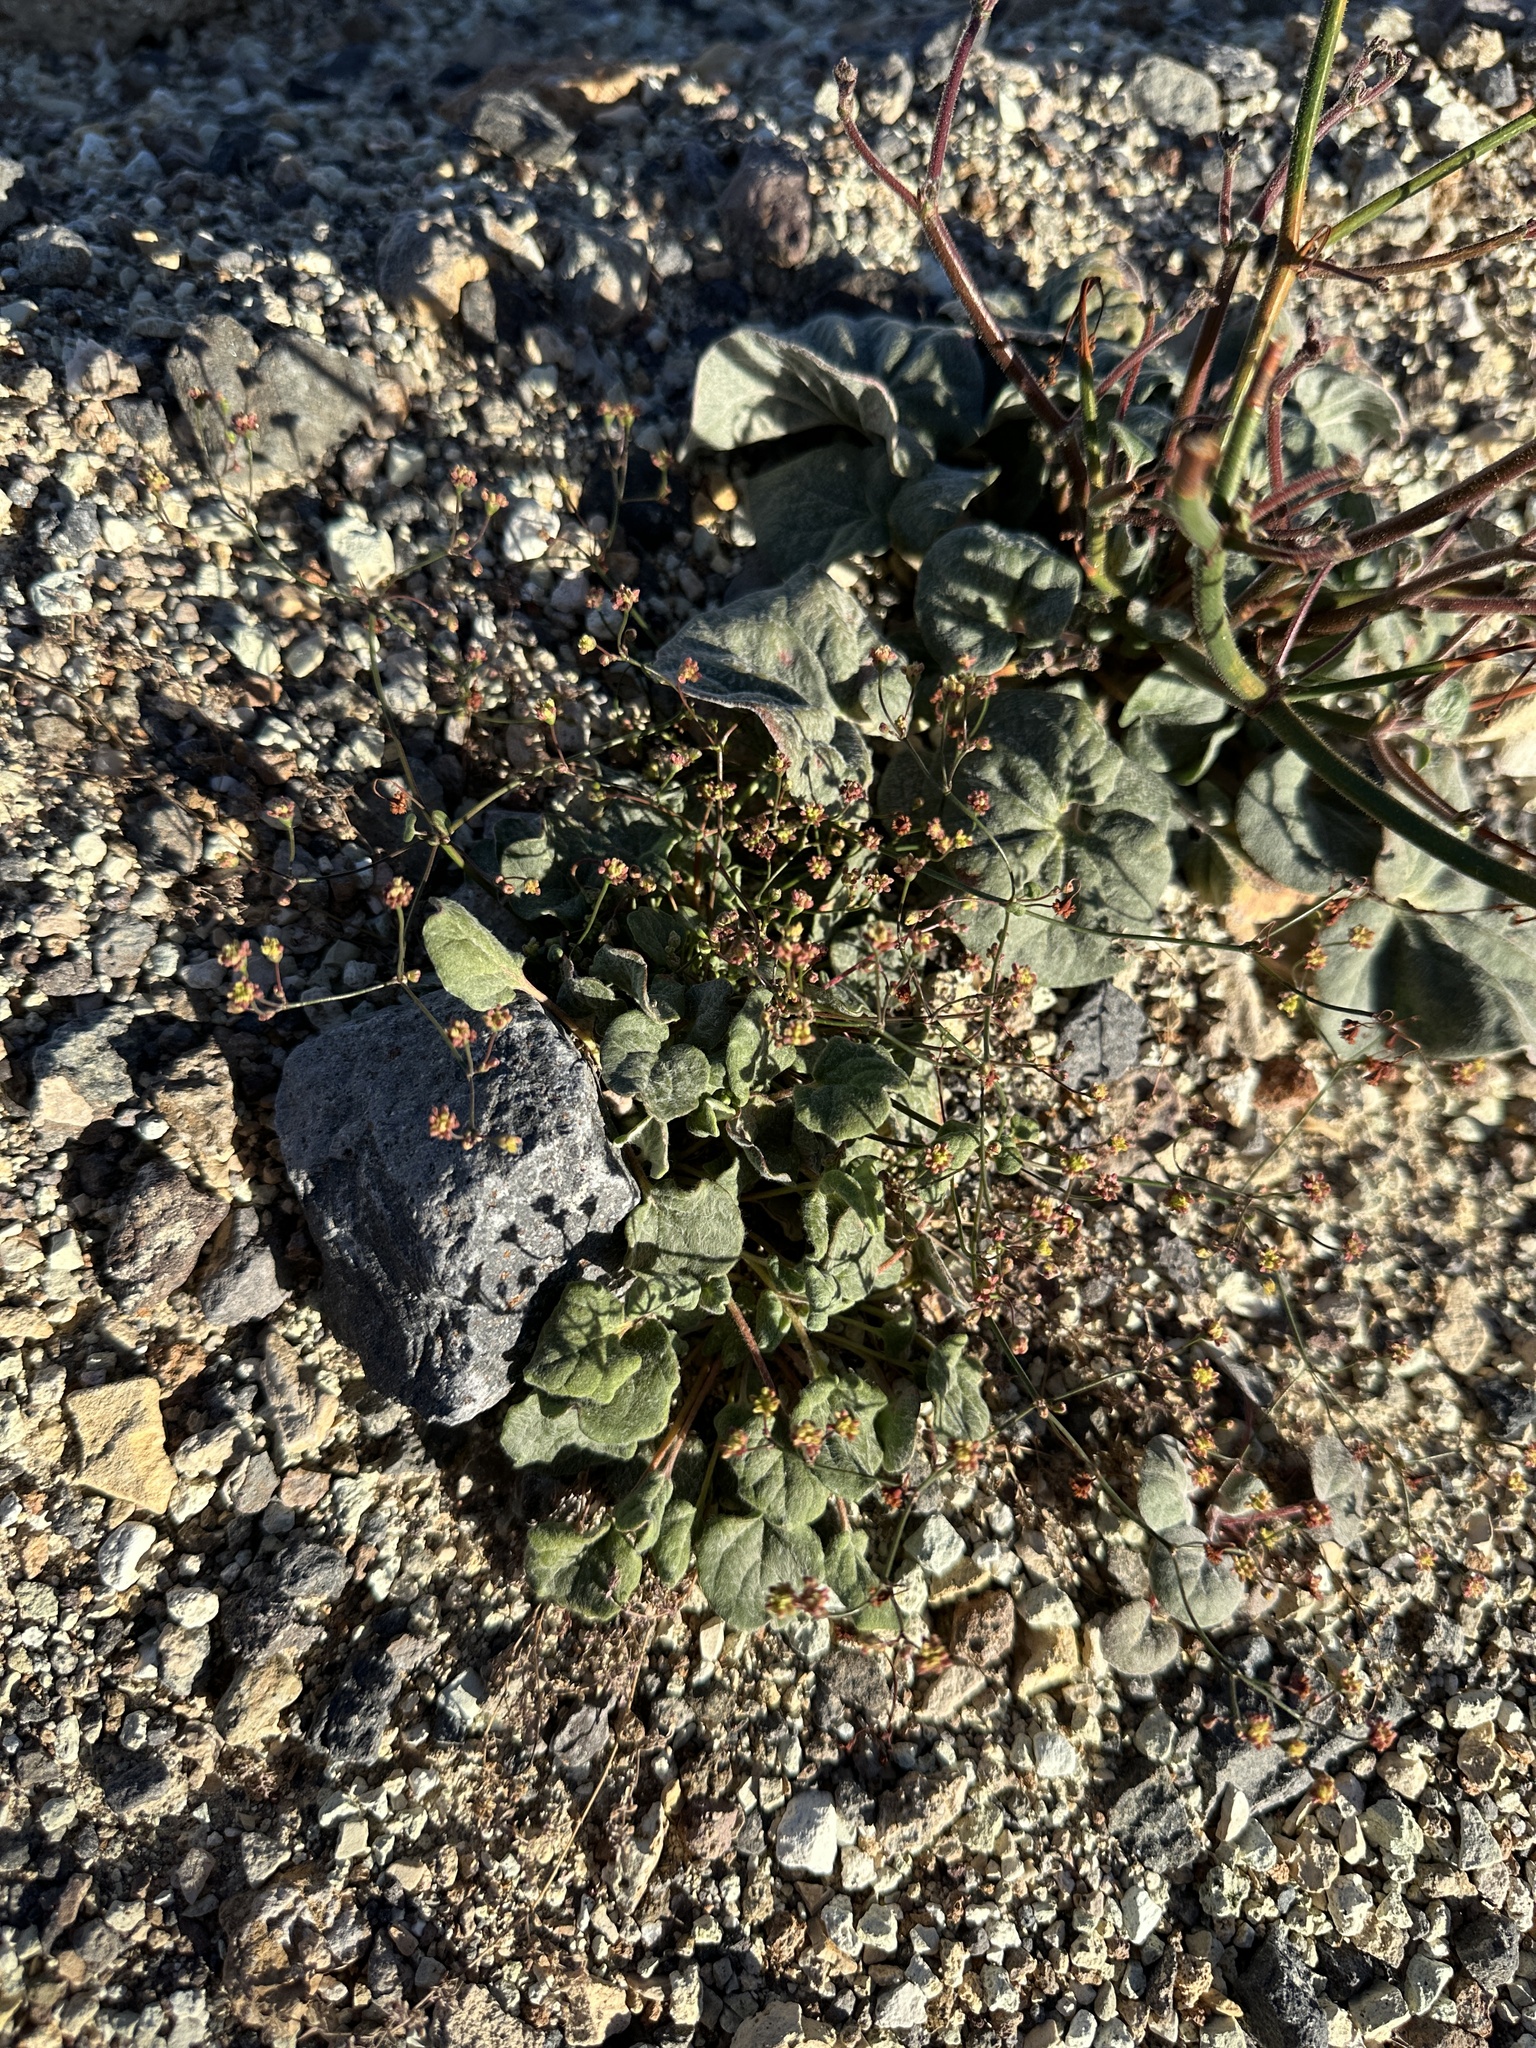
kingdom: Plantae
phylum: Tracheophyta
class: Magnoliopsida
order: Caryophyllales
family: Polygonaceae
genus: Eriogonum
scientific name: Eriogonum reniforme
